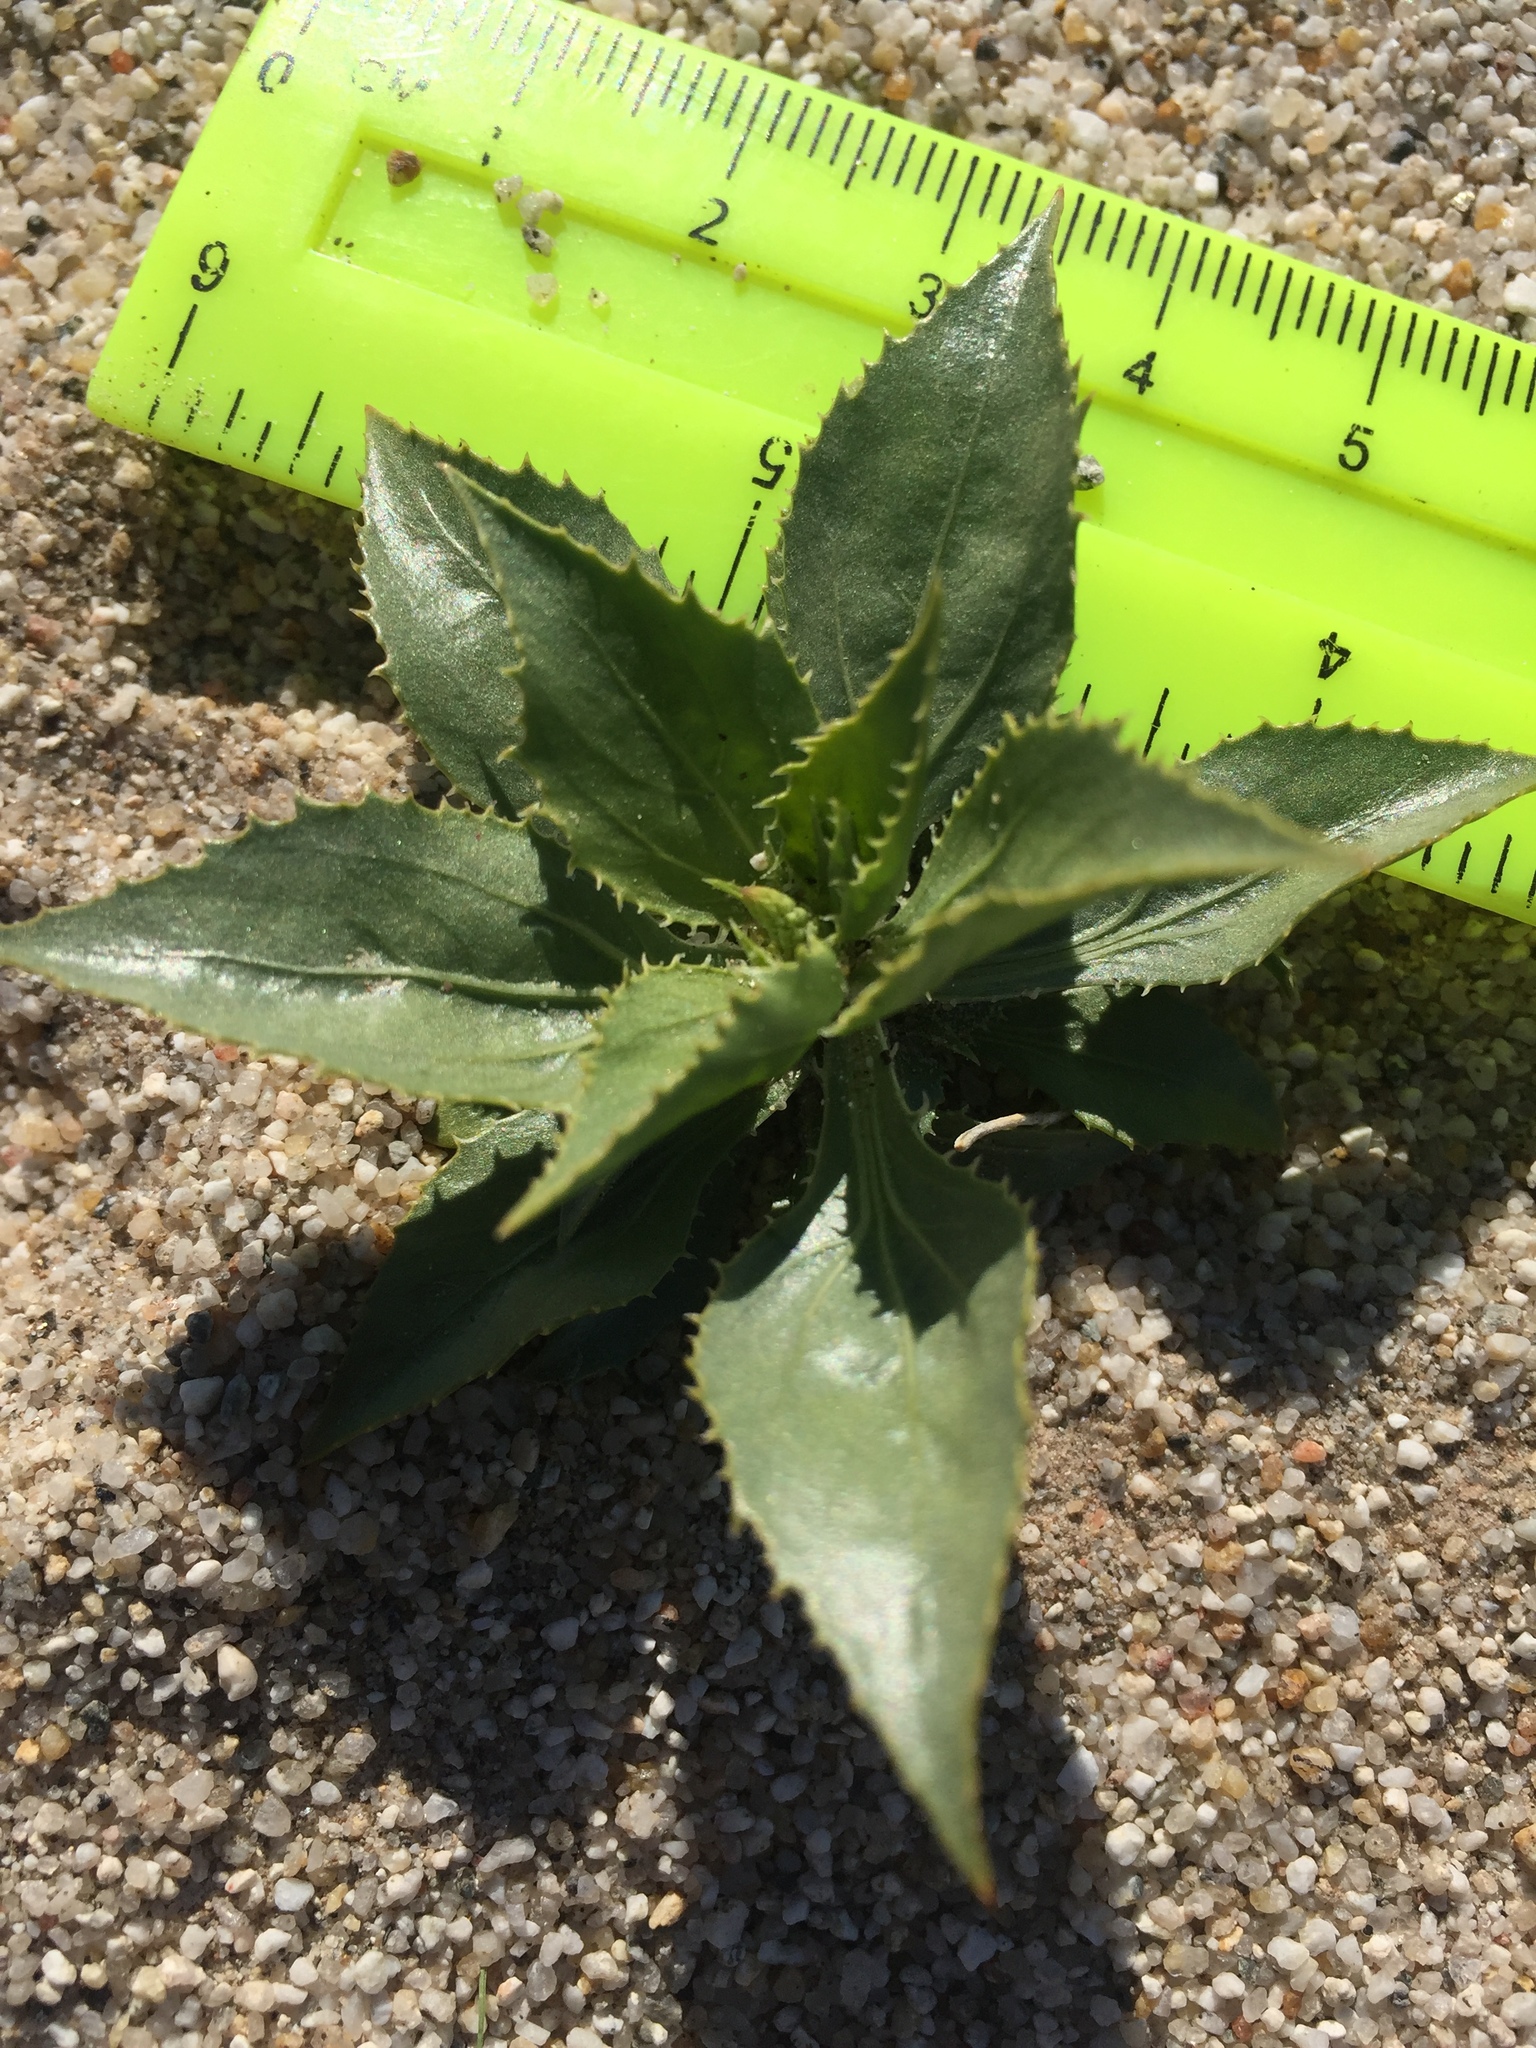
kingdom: Plantae
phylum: Tracheophyta
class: Magnoliopsida
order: Malpighiales
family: Euphorbiaceae
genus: Stillingia
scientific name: Stillingia spinulosa
